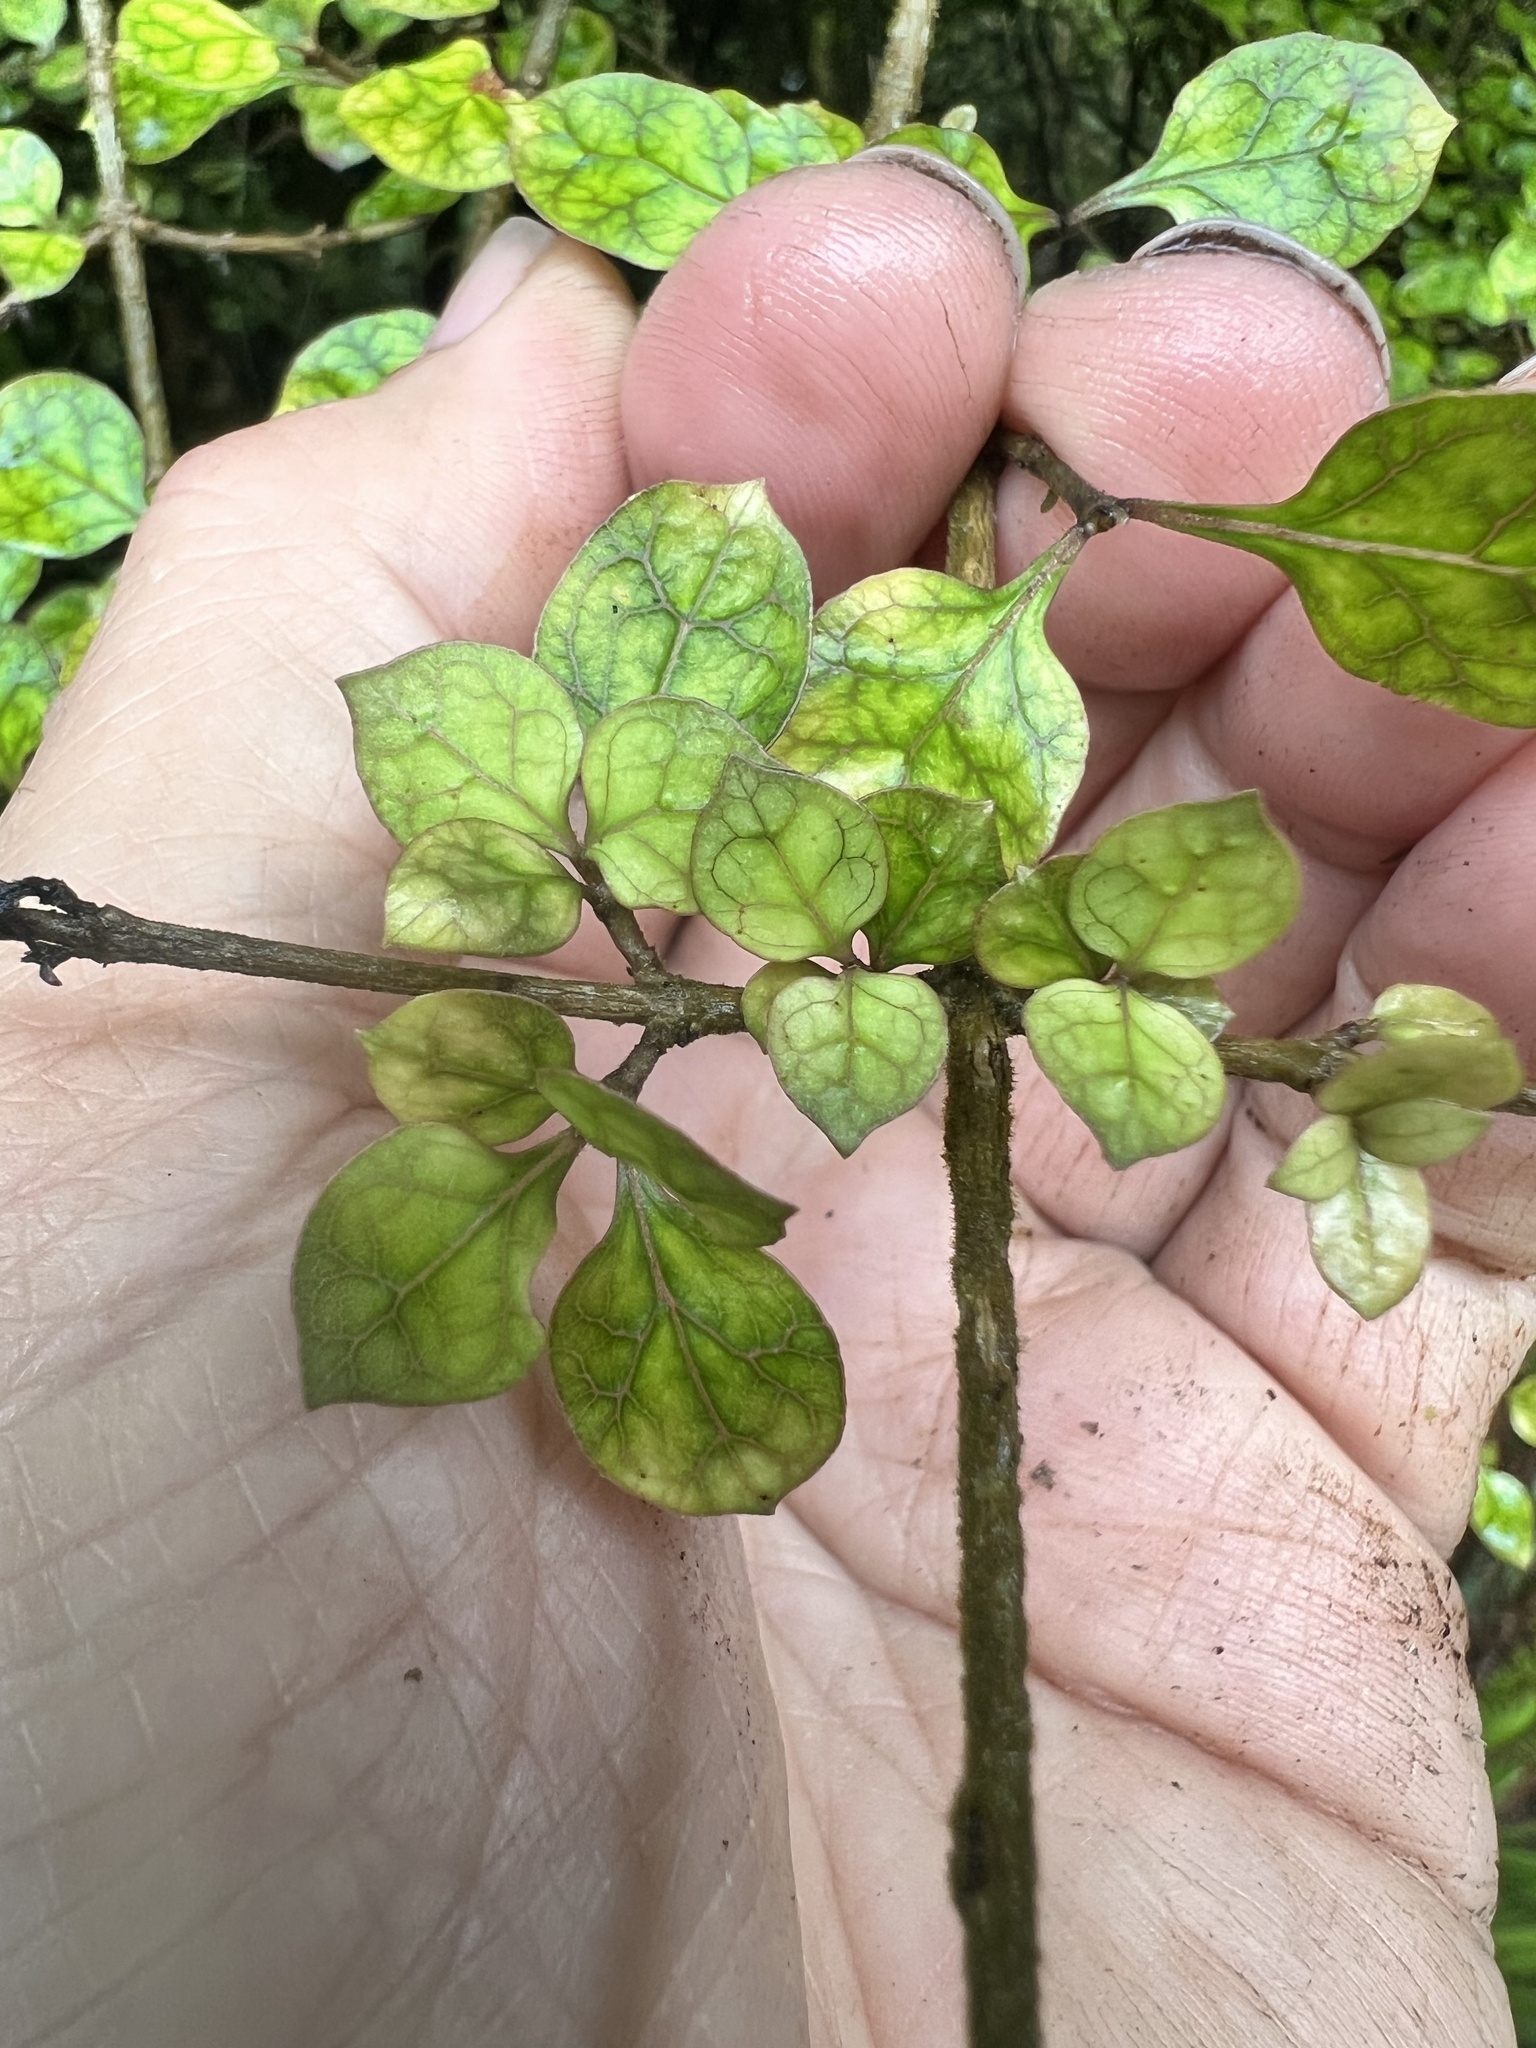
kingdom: Plantae
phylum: Tracheophyta
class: Magnoliopsida
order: Gentianales
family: Rubiaceae
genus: Coprosma
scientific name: Coprosma areolata
